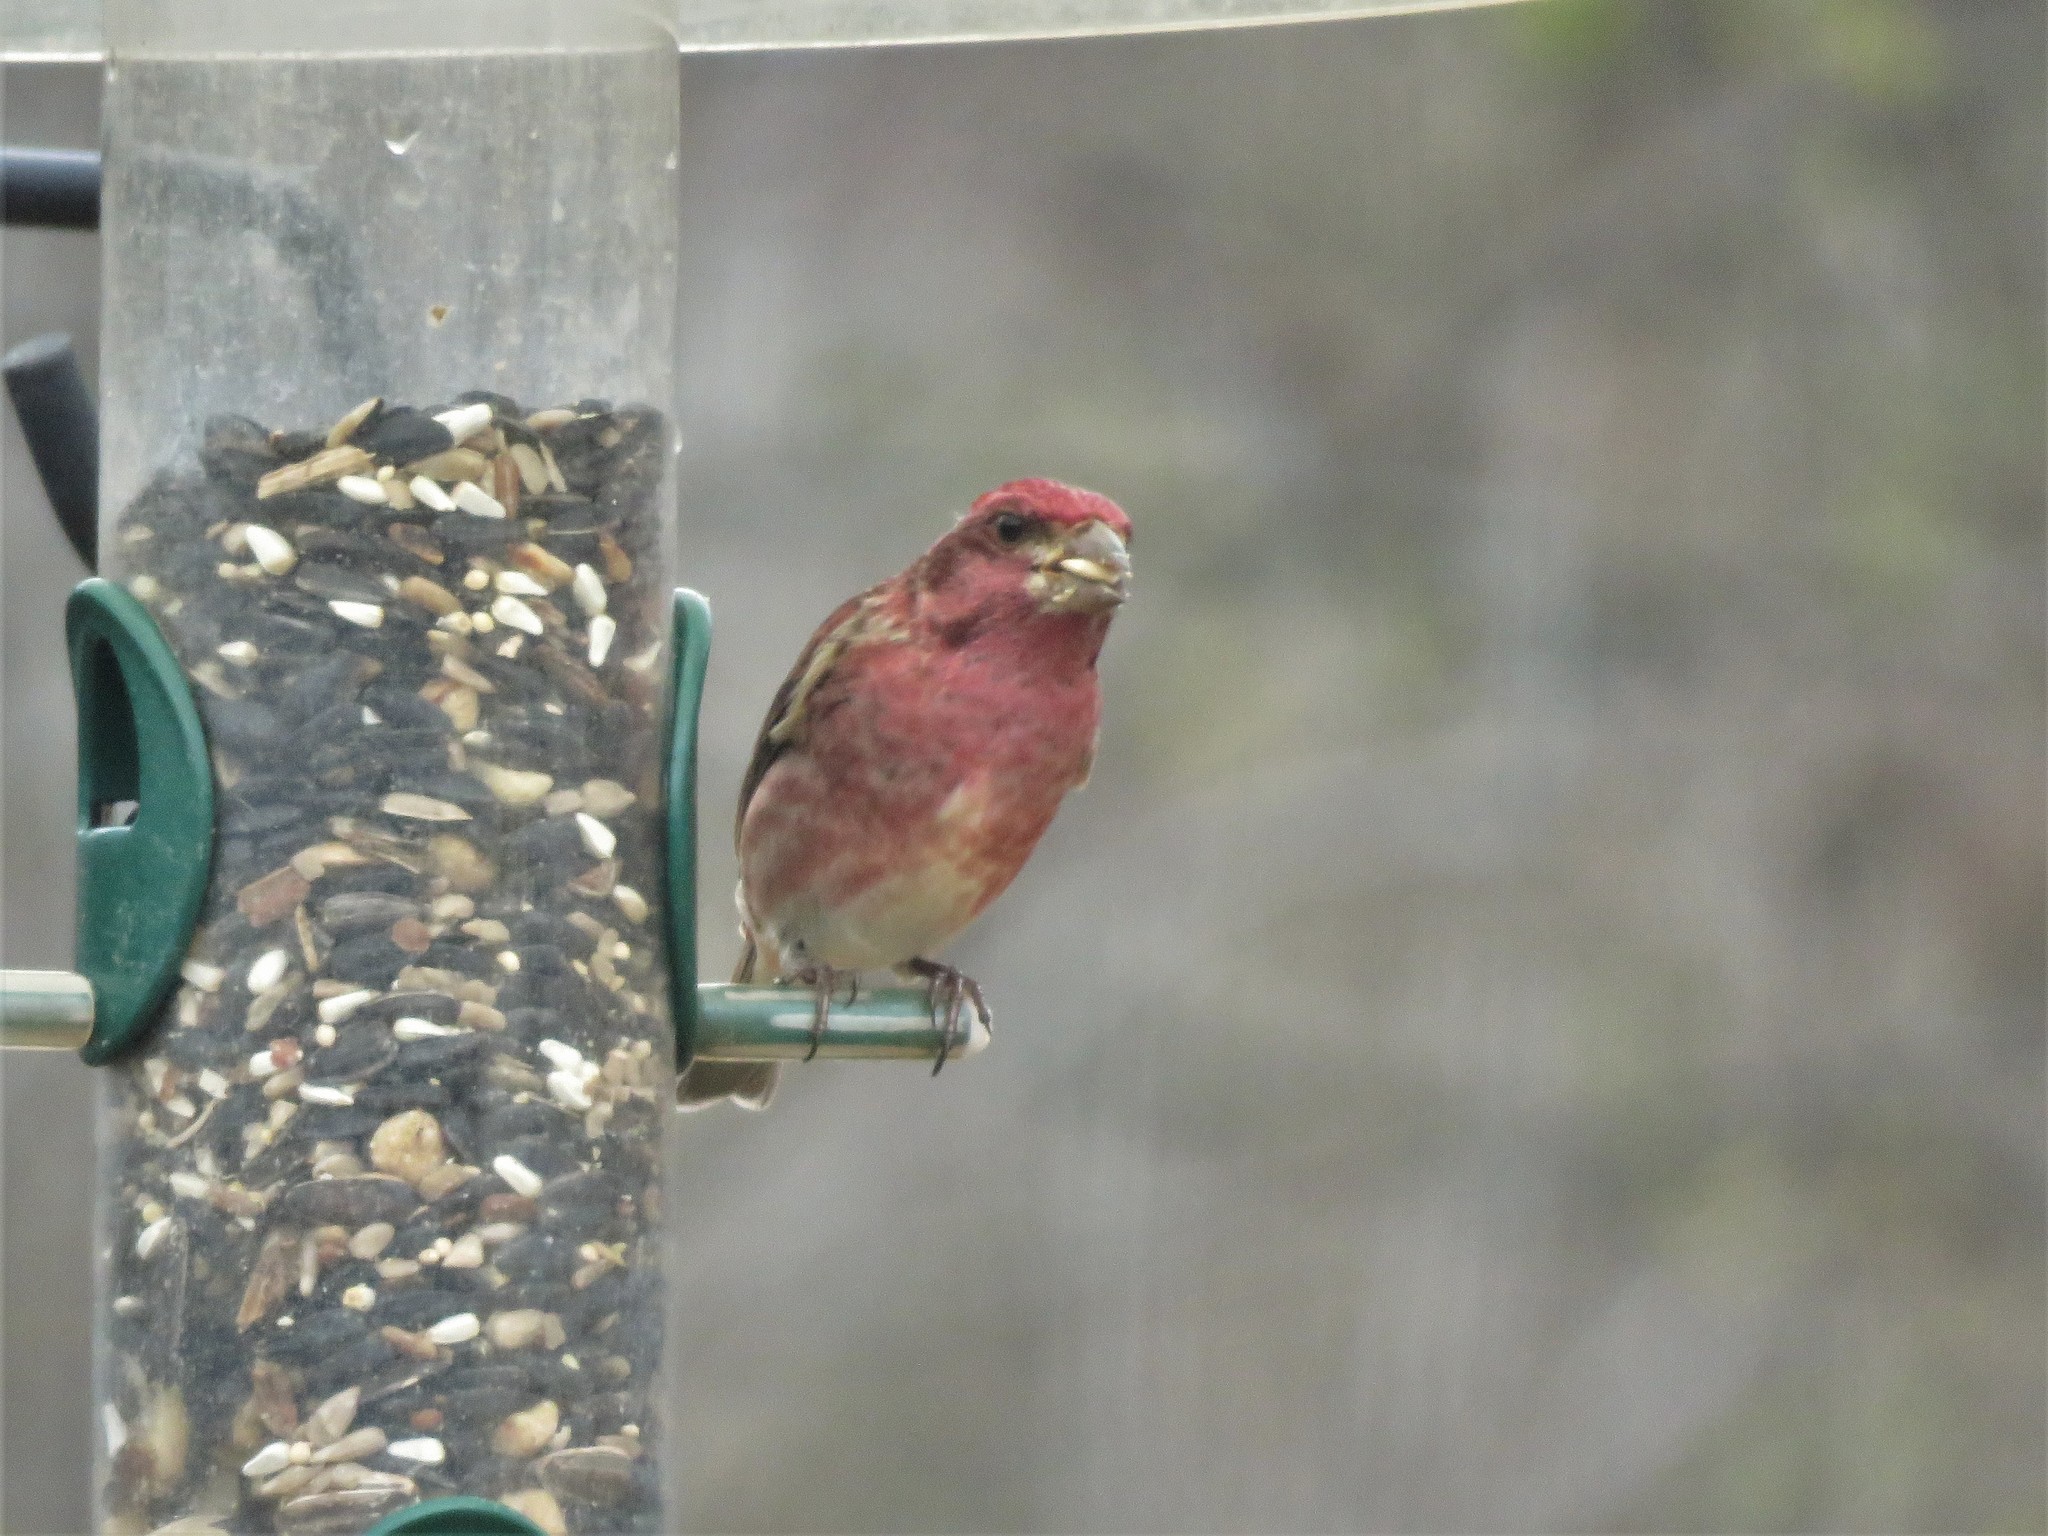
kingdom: Animalia
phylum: Chordata
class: Aves
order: Passeriformes
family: Fringillidae
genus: Haemorhous
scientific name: Haemorhous purpureus
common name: Purple finch
